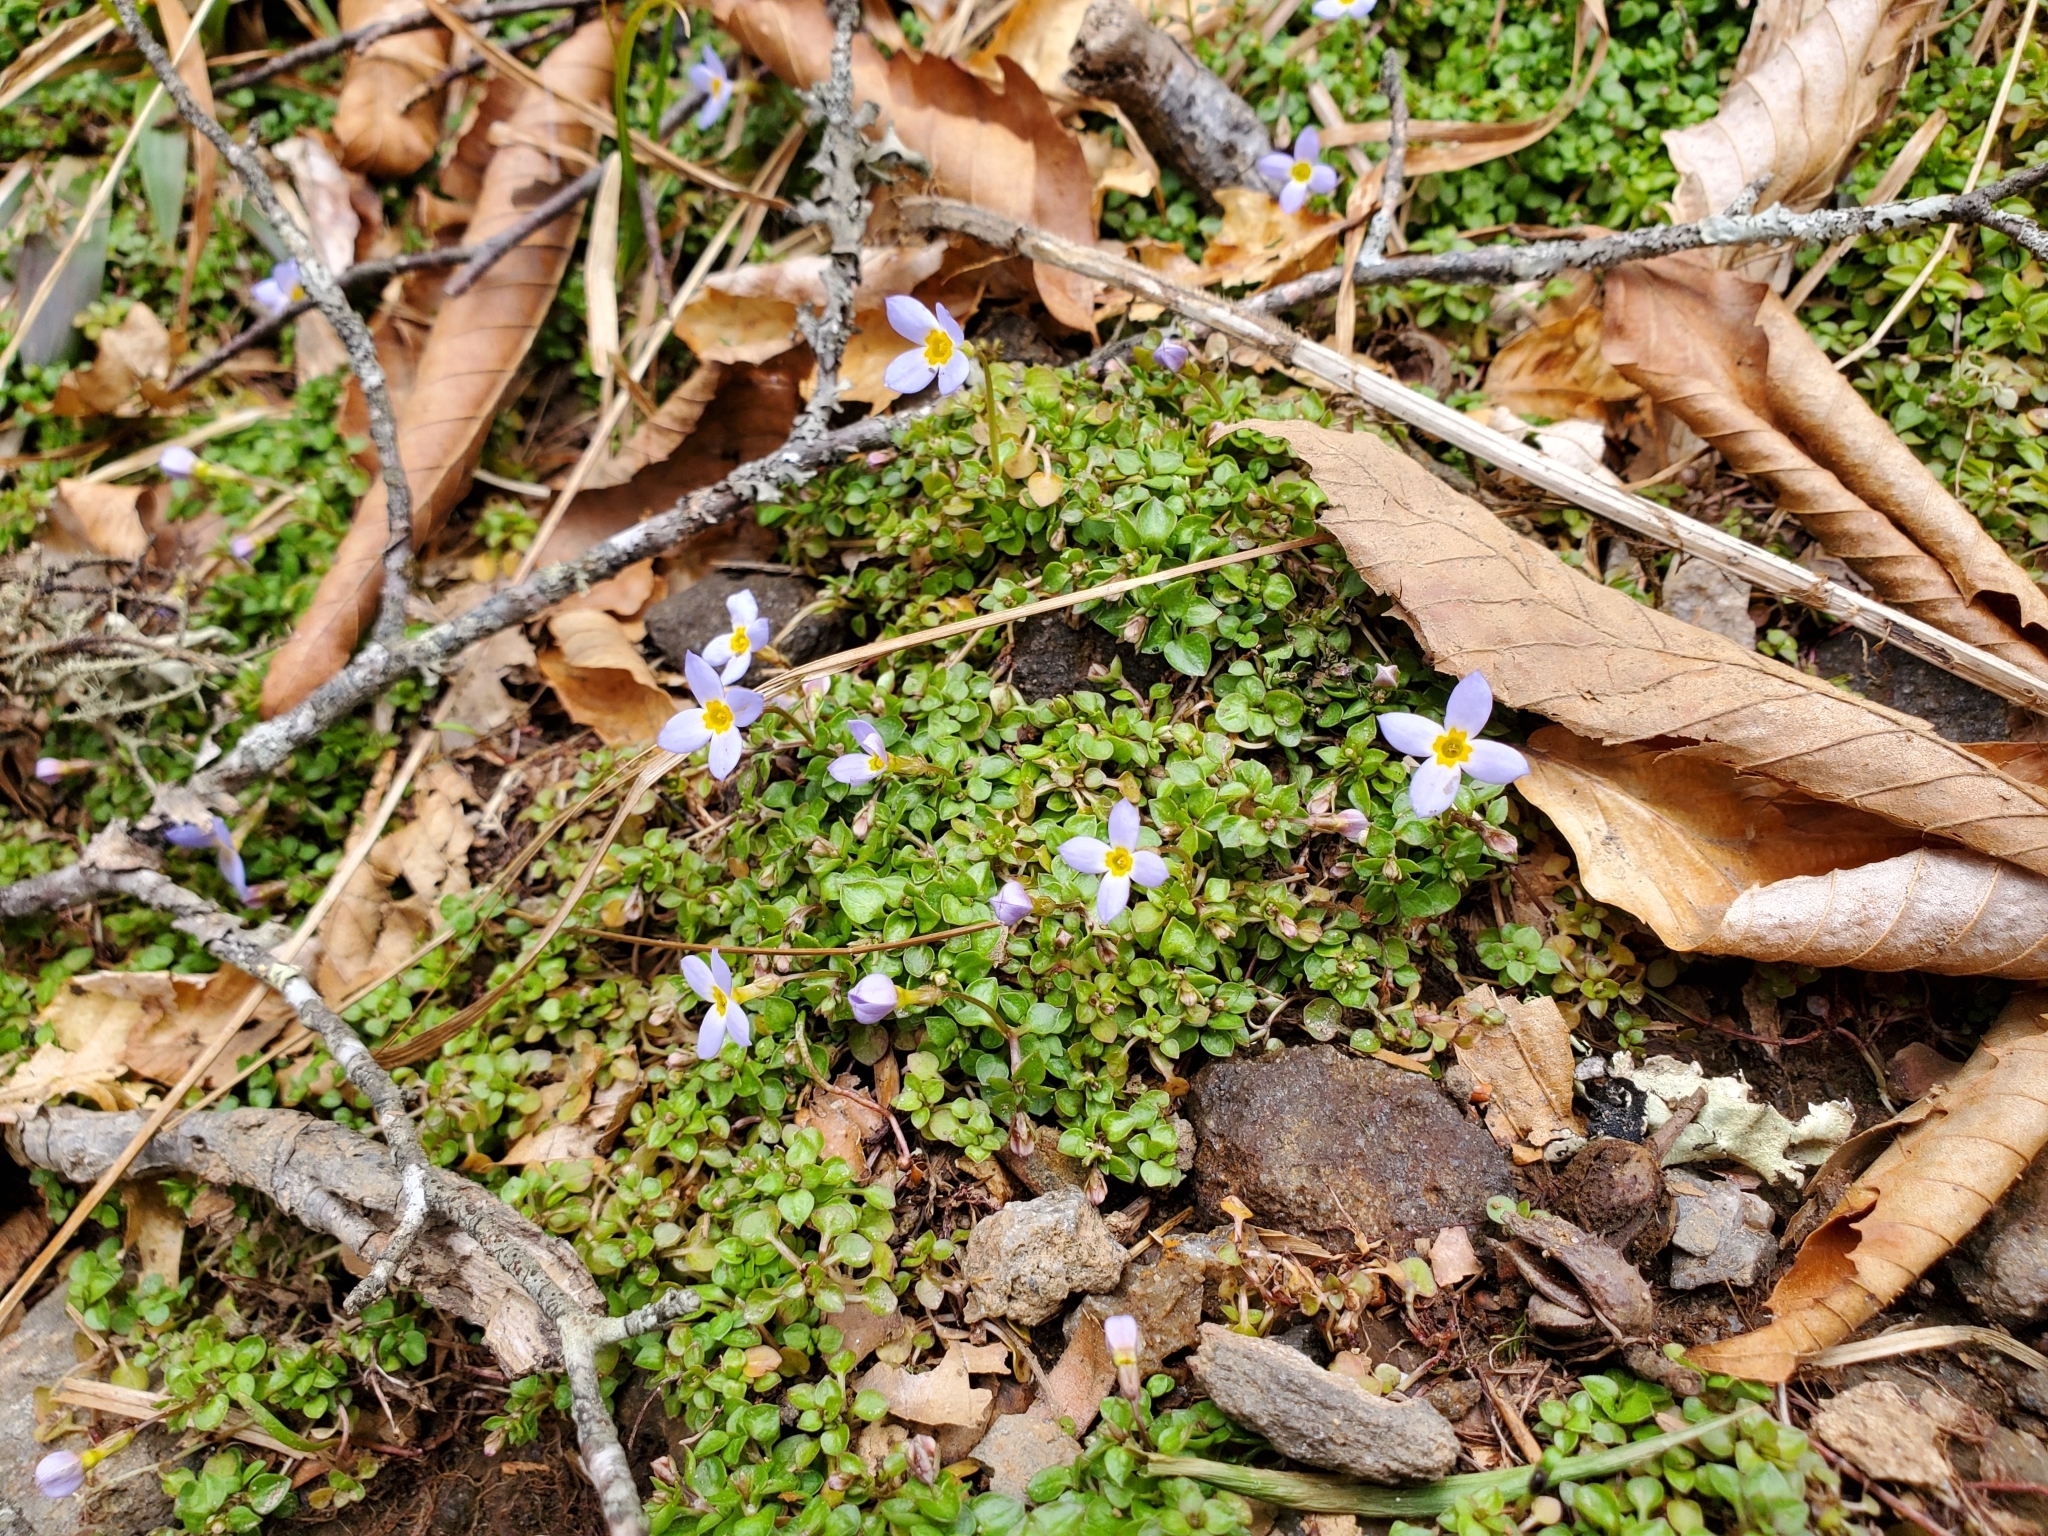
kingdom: Plantae
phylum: Tracheophyta
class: Magnoliopsida
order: Gentianales
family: Rubiaceae
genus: Houstonia
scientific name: Houstonia serpyllifolia
